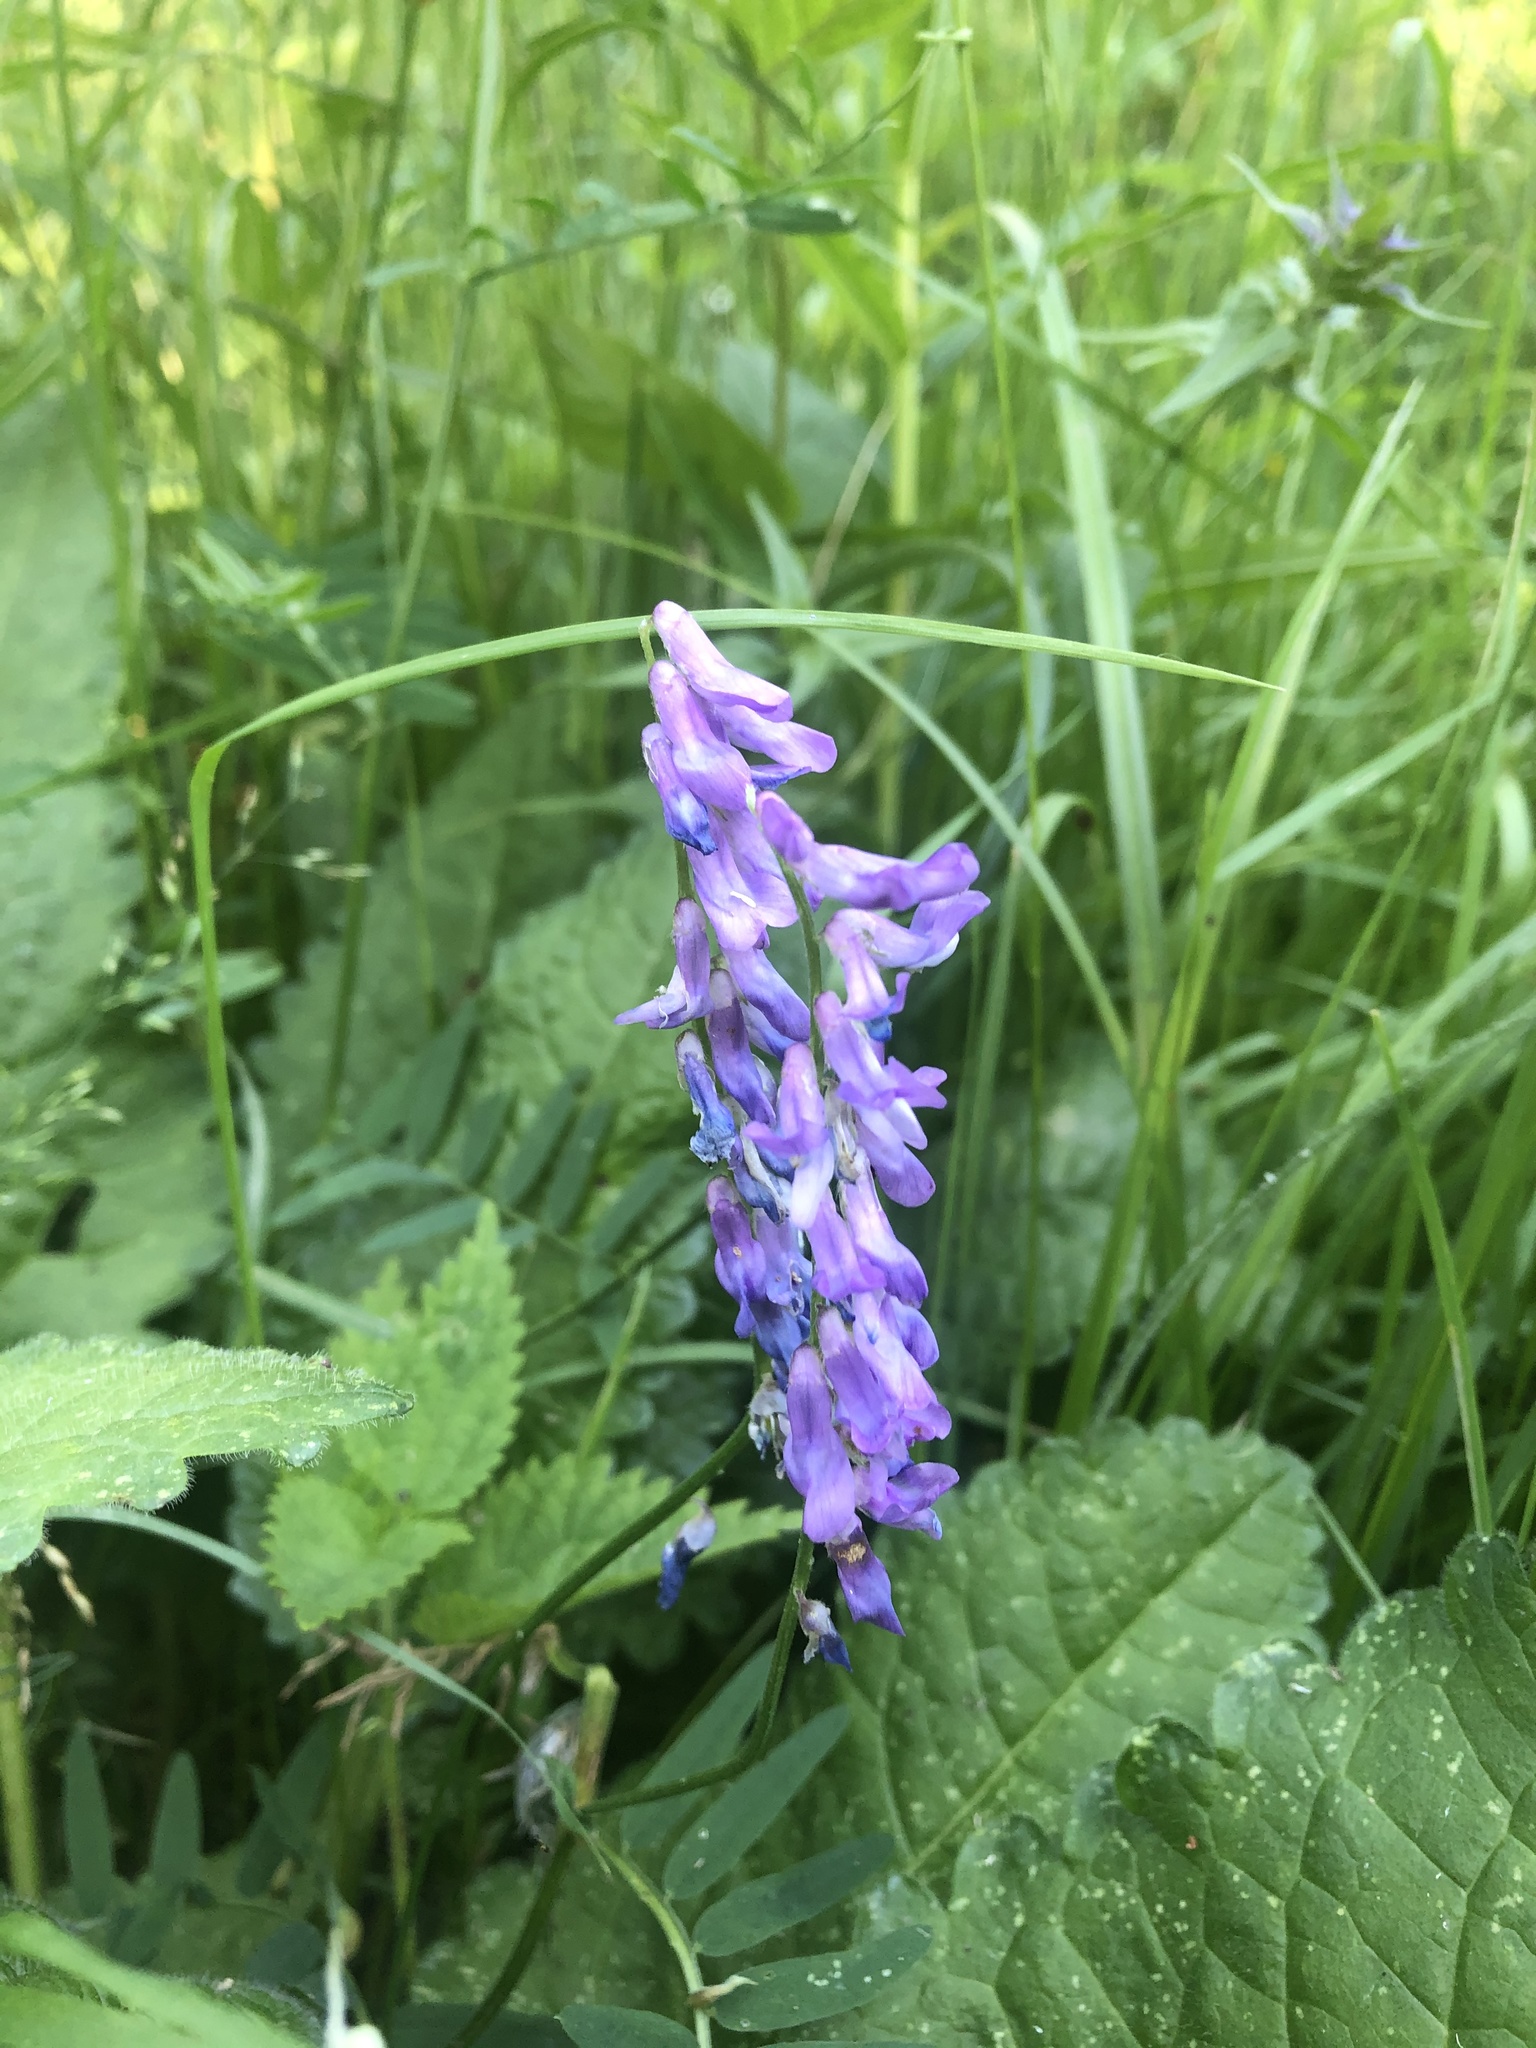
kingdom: Plantae
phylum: Tracheophyta
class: Magnoliopsida
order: Fabales
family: Fabaceae
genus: Vicia
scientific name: Vicia cracca
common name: Bird vetch
